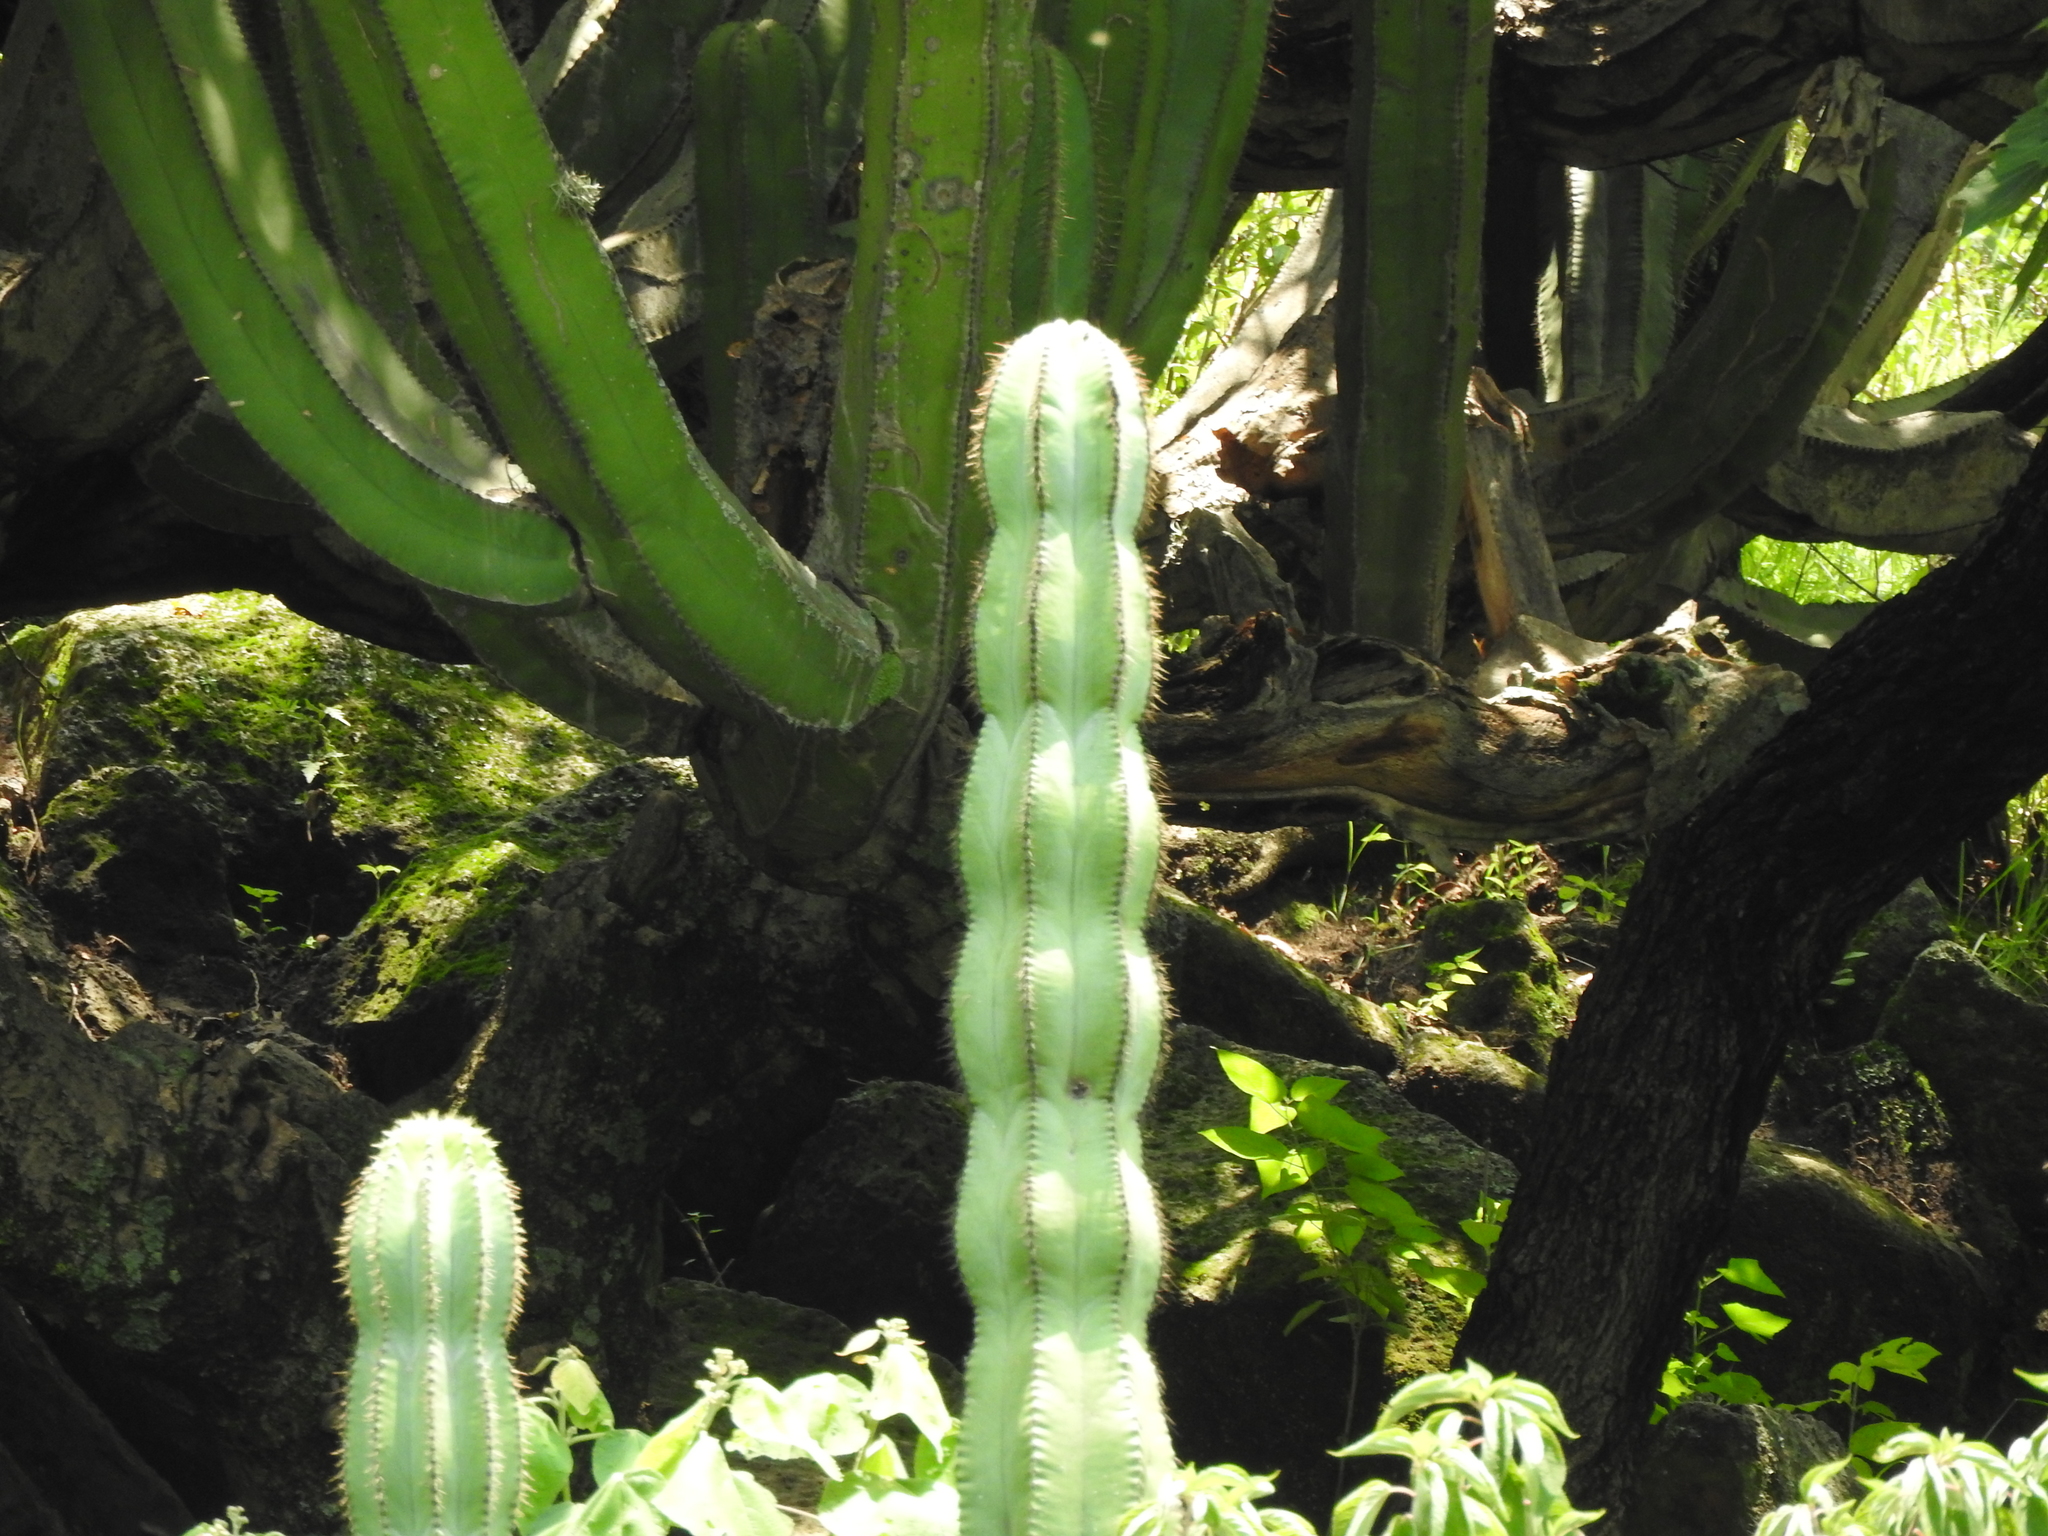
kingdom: Plantae
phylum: Tracheophyta
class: Magnoliopsida
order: Caryophyllales
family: Cactaceae
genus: Stenocereus
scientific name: Stenocereus dumortieri
